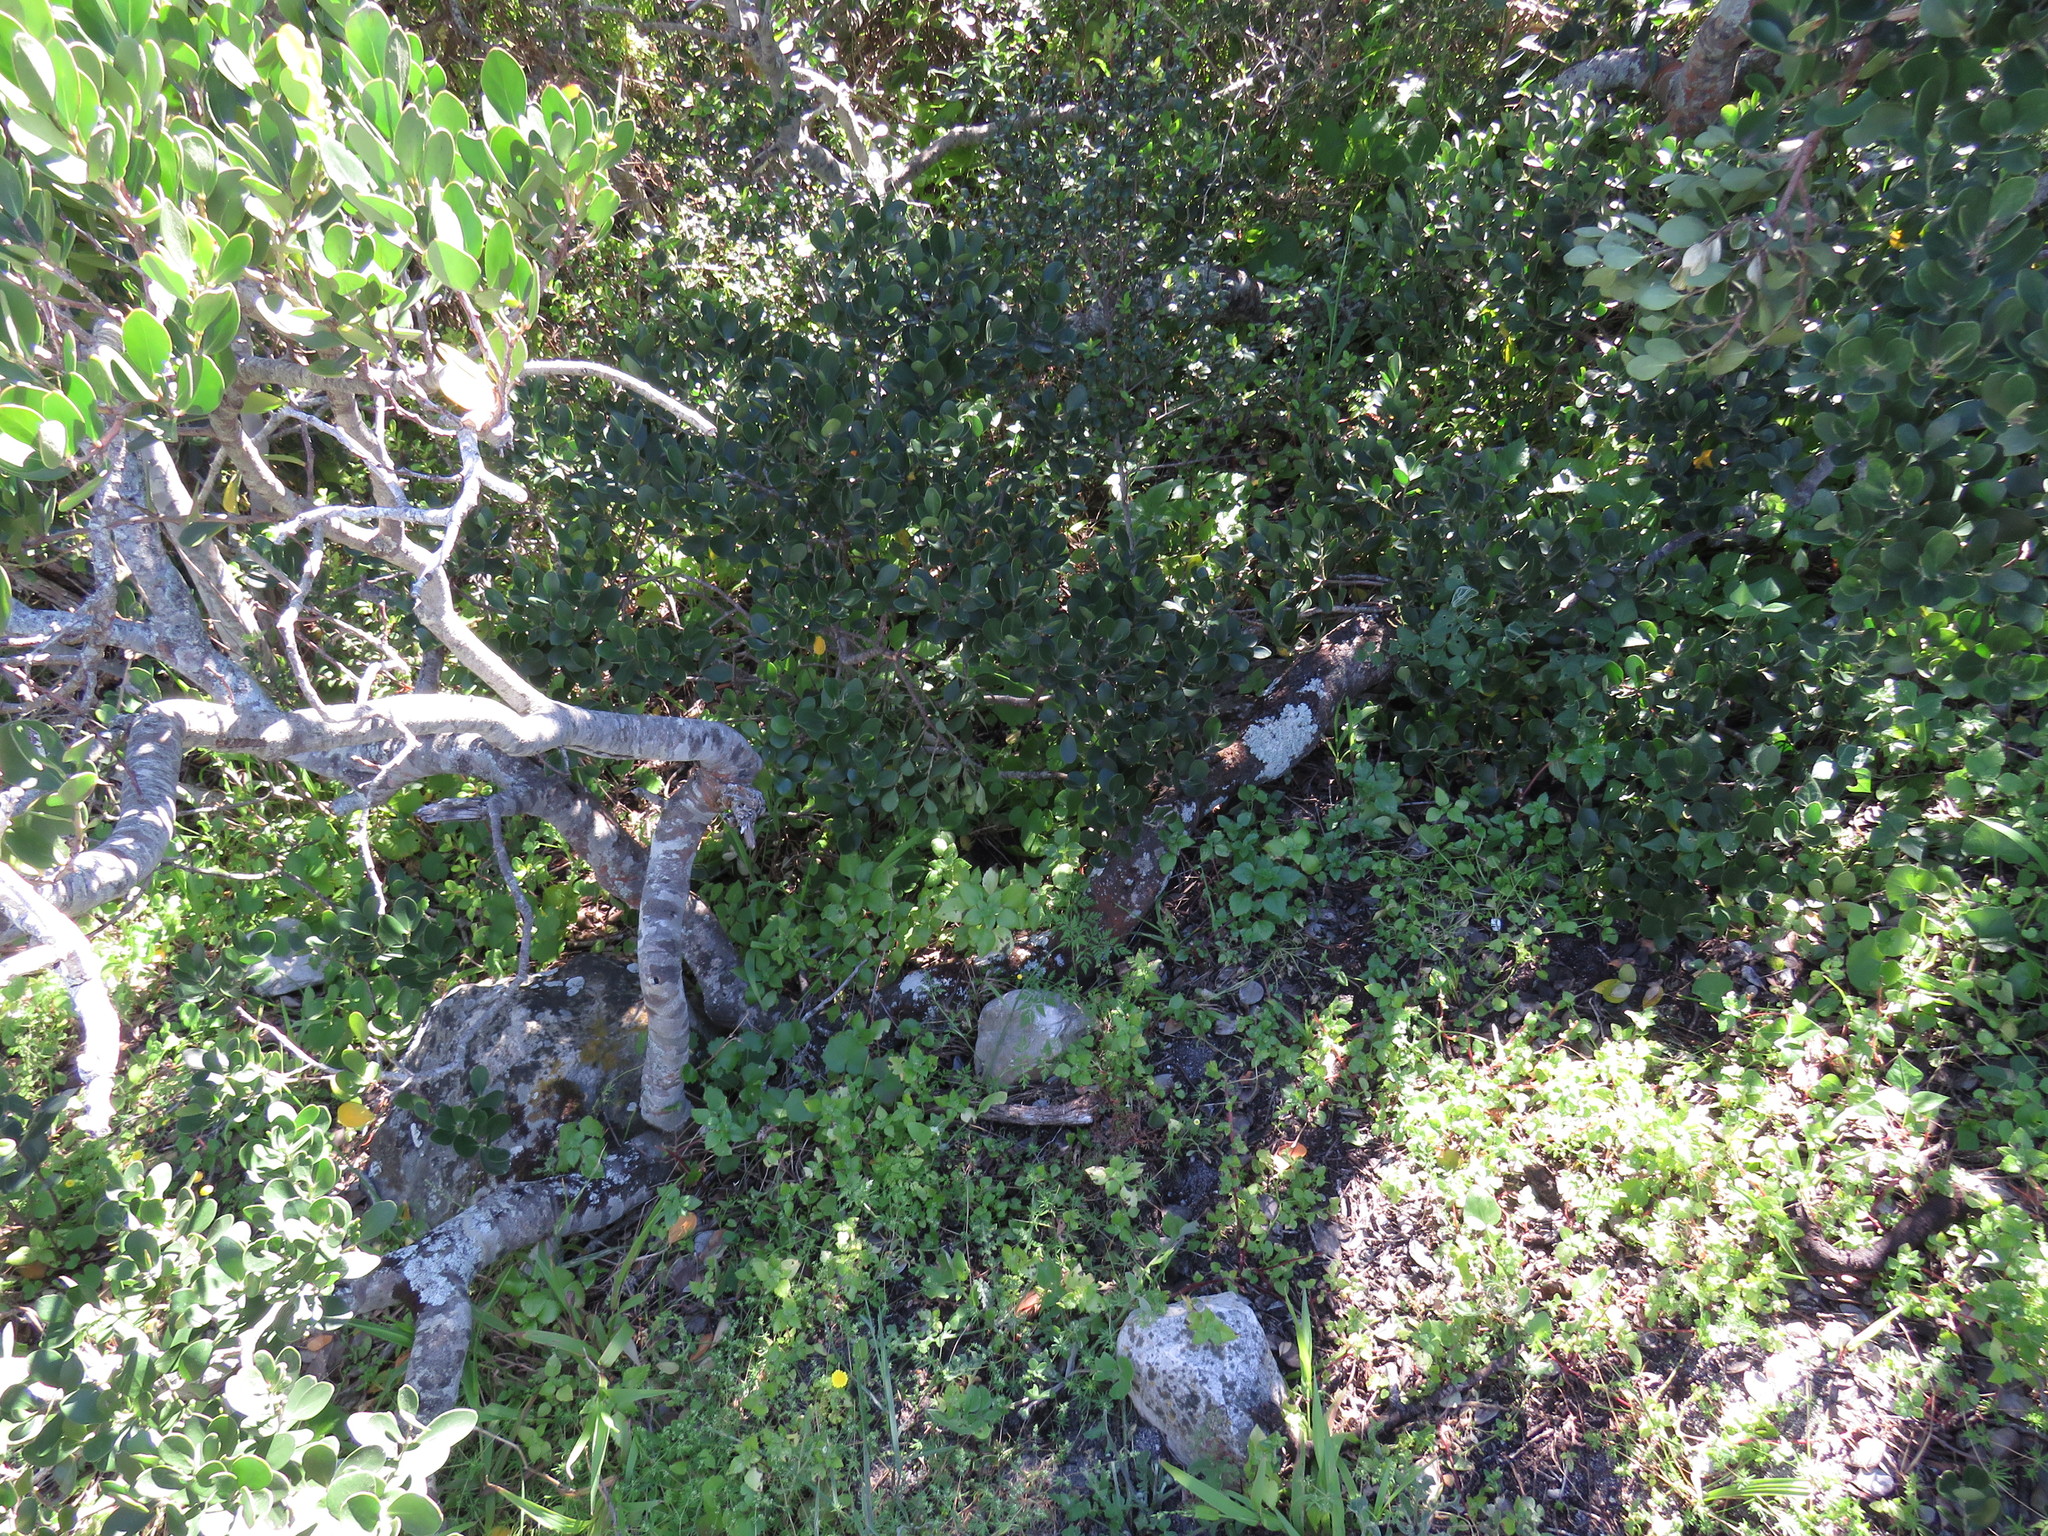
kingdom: Plantae
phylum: Tracheophyta
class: Magnoliopsida
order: Rosales
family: Urticaceae
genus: Didymodoxa
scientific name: Didymodoxa capensis
